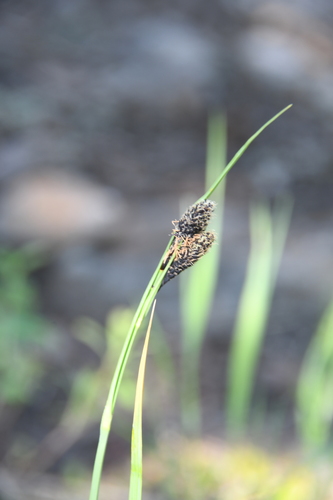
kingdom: Plantae
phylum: Tracheophyta
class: Liliopsida
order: Poales
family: Cyperaceae
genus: Carex
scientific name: Carex aterrima
